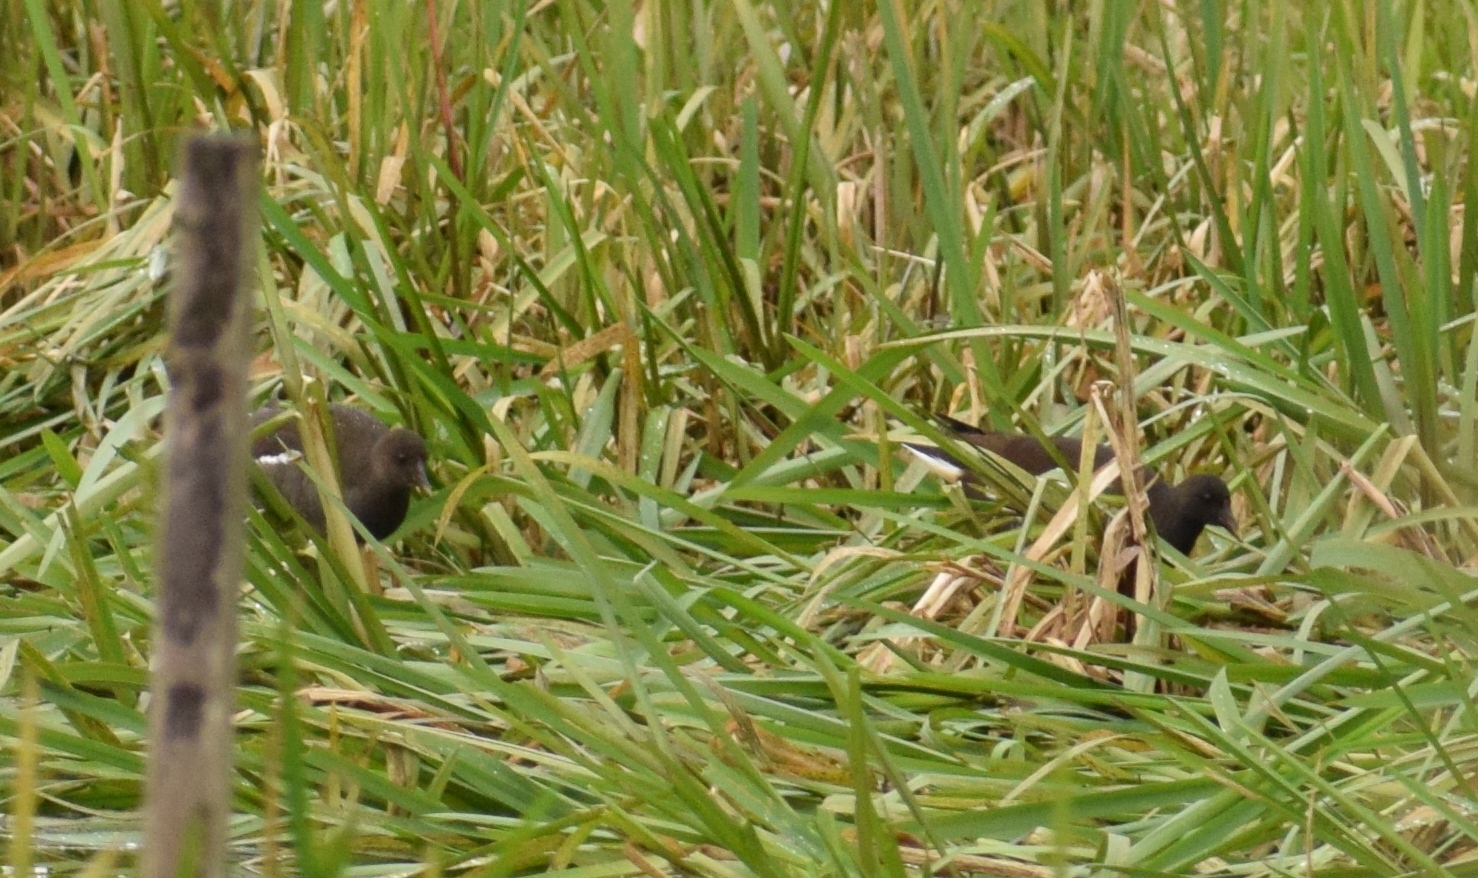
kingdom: Animalia
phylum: Chordata
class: Aves
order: Gruiformes
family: Rallidae
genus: Gallinula
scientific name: Gallinula chloropus
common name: Common moorhen
